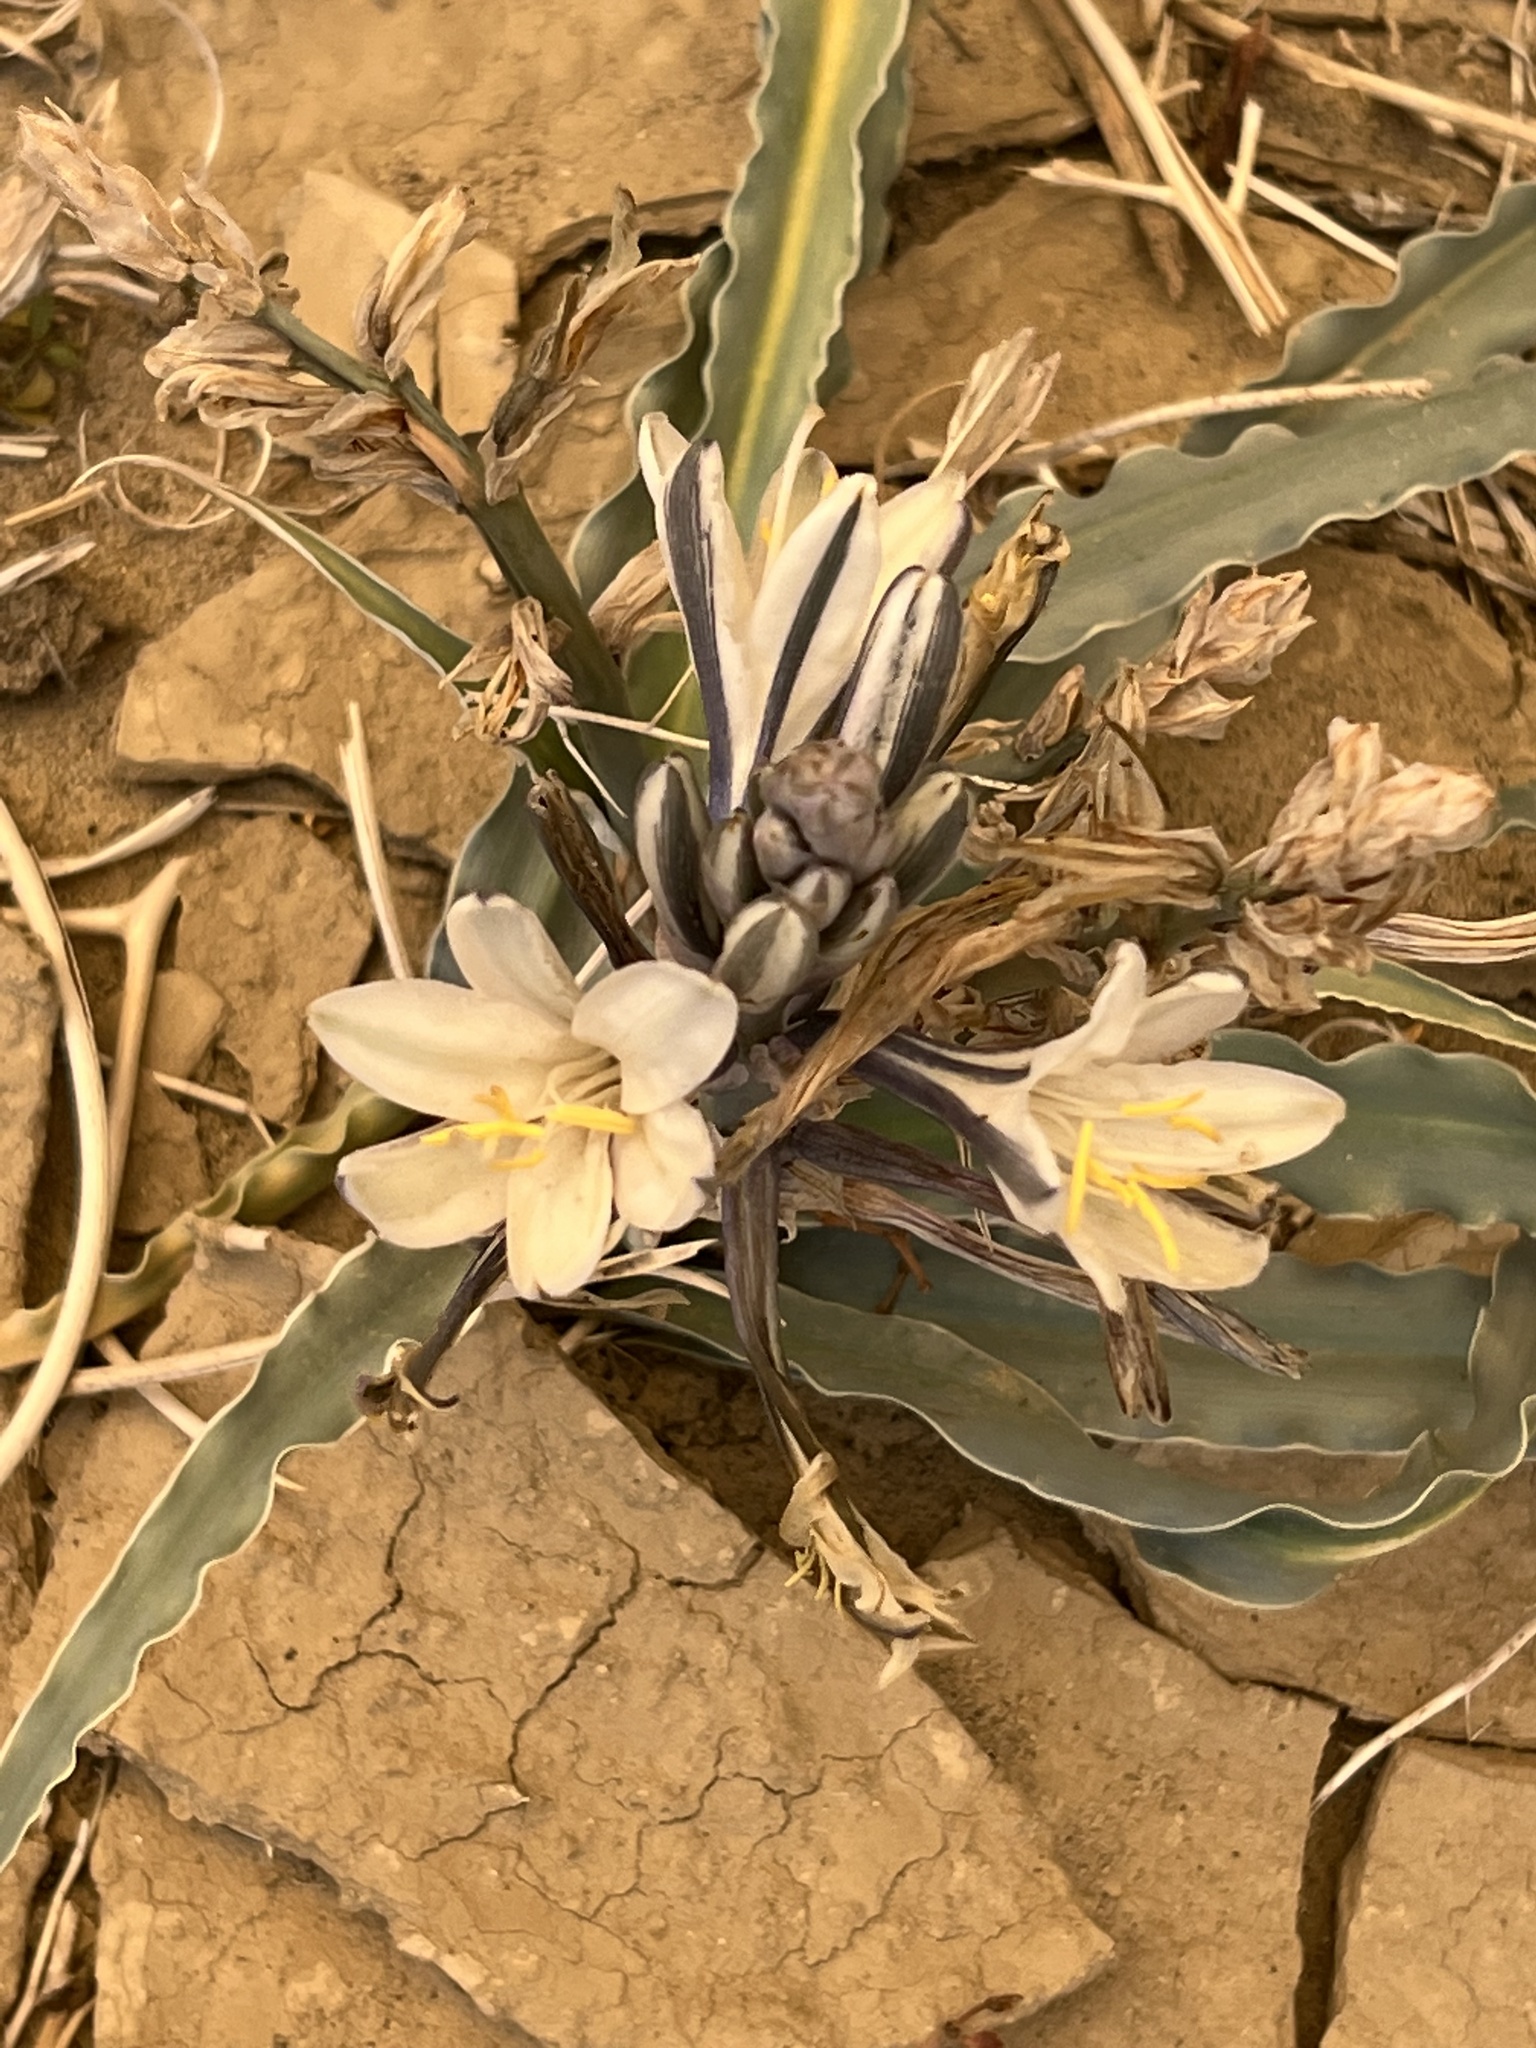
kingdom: Plantae
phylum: Tracheophyta
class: Liliopsida
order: Asparagales
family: Asparagaceae
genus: Hesperocallis
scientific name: Hesperocallis undulata
